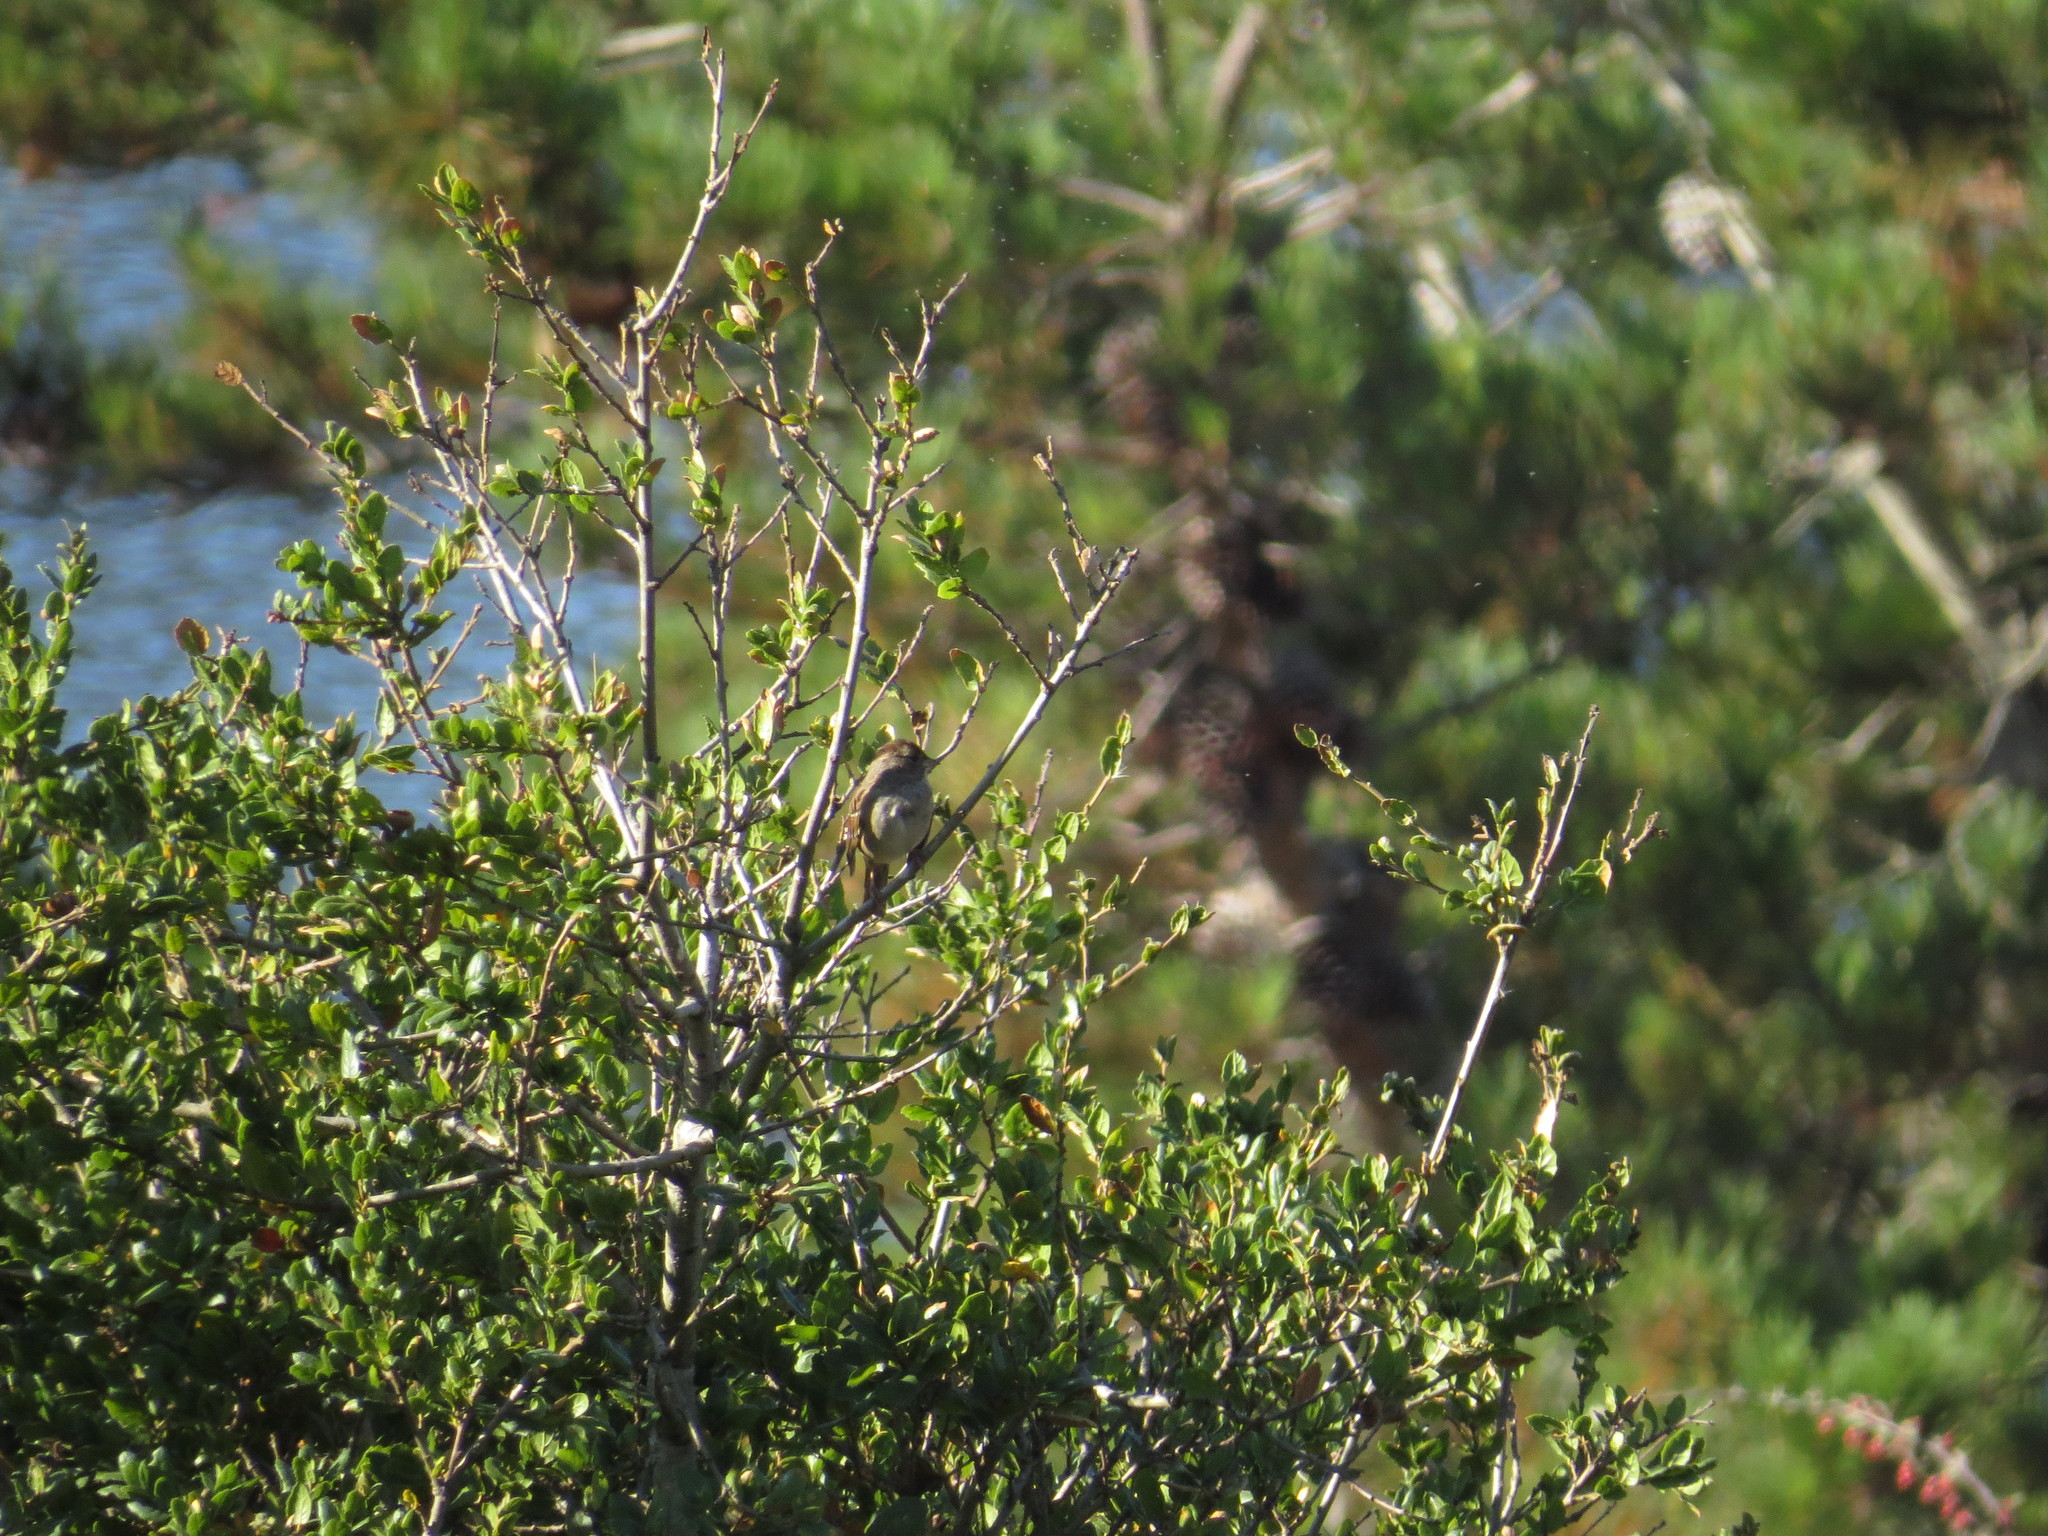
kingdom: Animalia
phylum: Chordata
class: Aves
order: Passeriformes
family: Passerellidae
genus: Zonotrichia
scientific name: Zonotrichia leucophrys
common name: White-crowned sparrow
